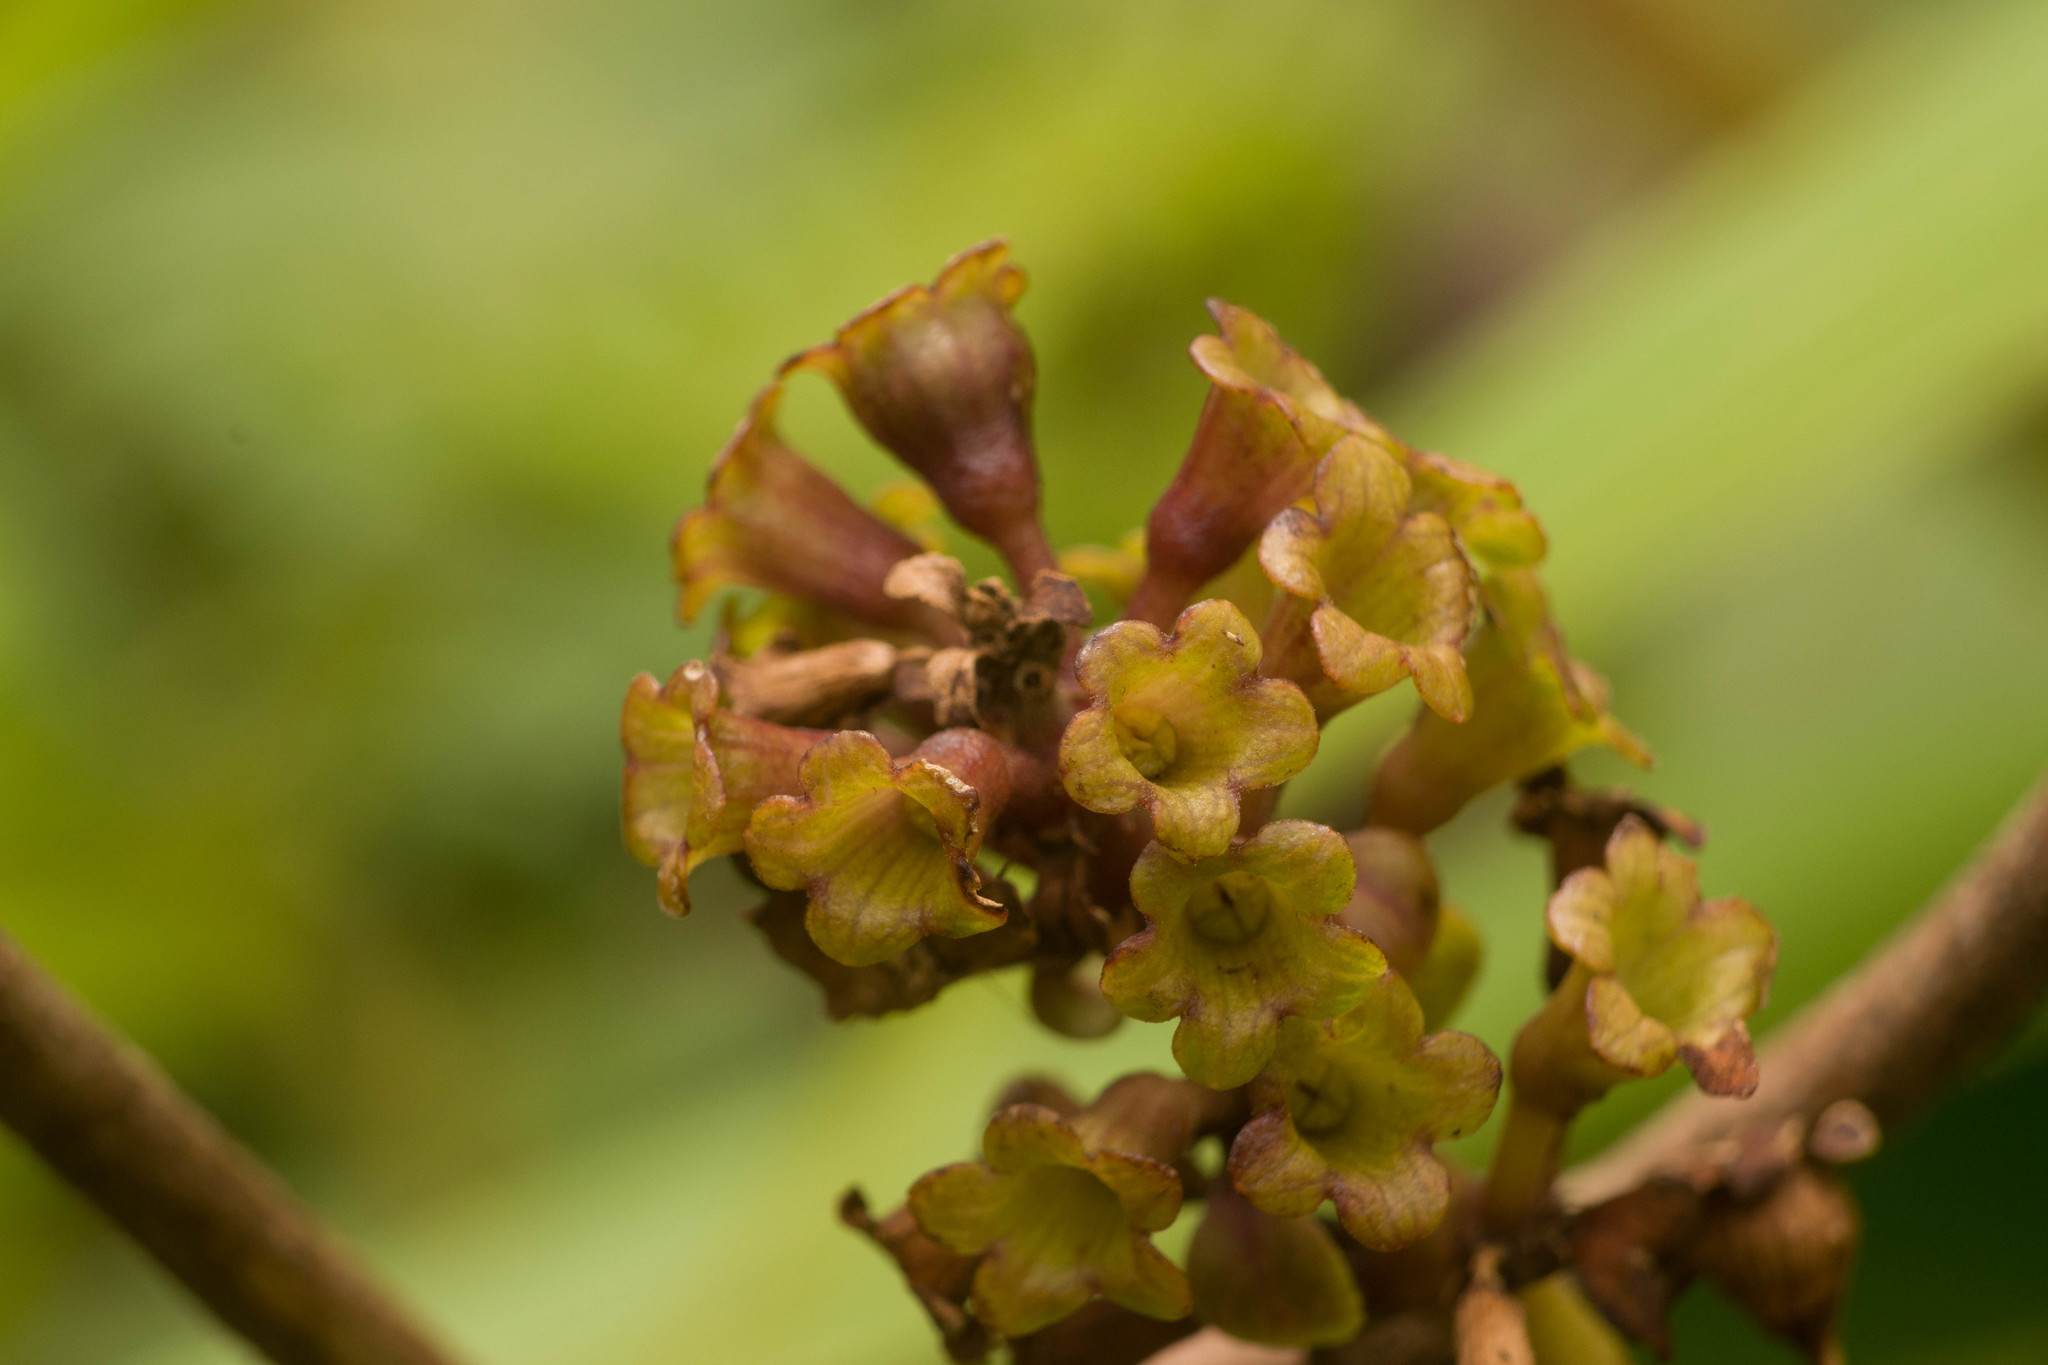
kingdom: Plantae
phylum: Tracheophyta
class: Magnoliopsida
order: Lamiales
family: Lamiaceae
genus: Phyllostegia
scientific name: Phyllostegia grandiflora
